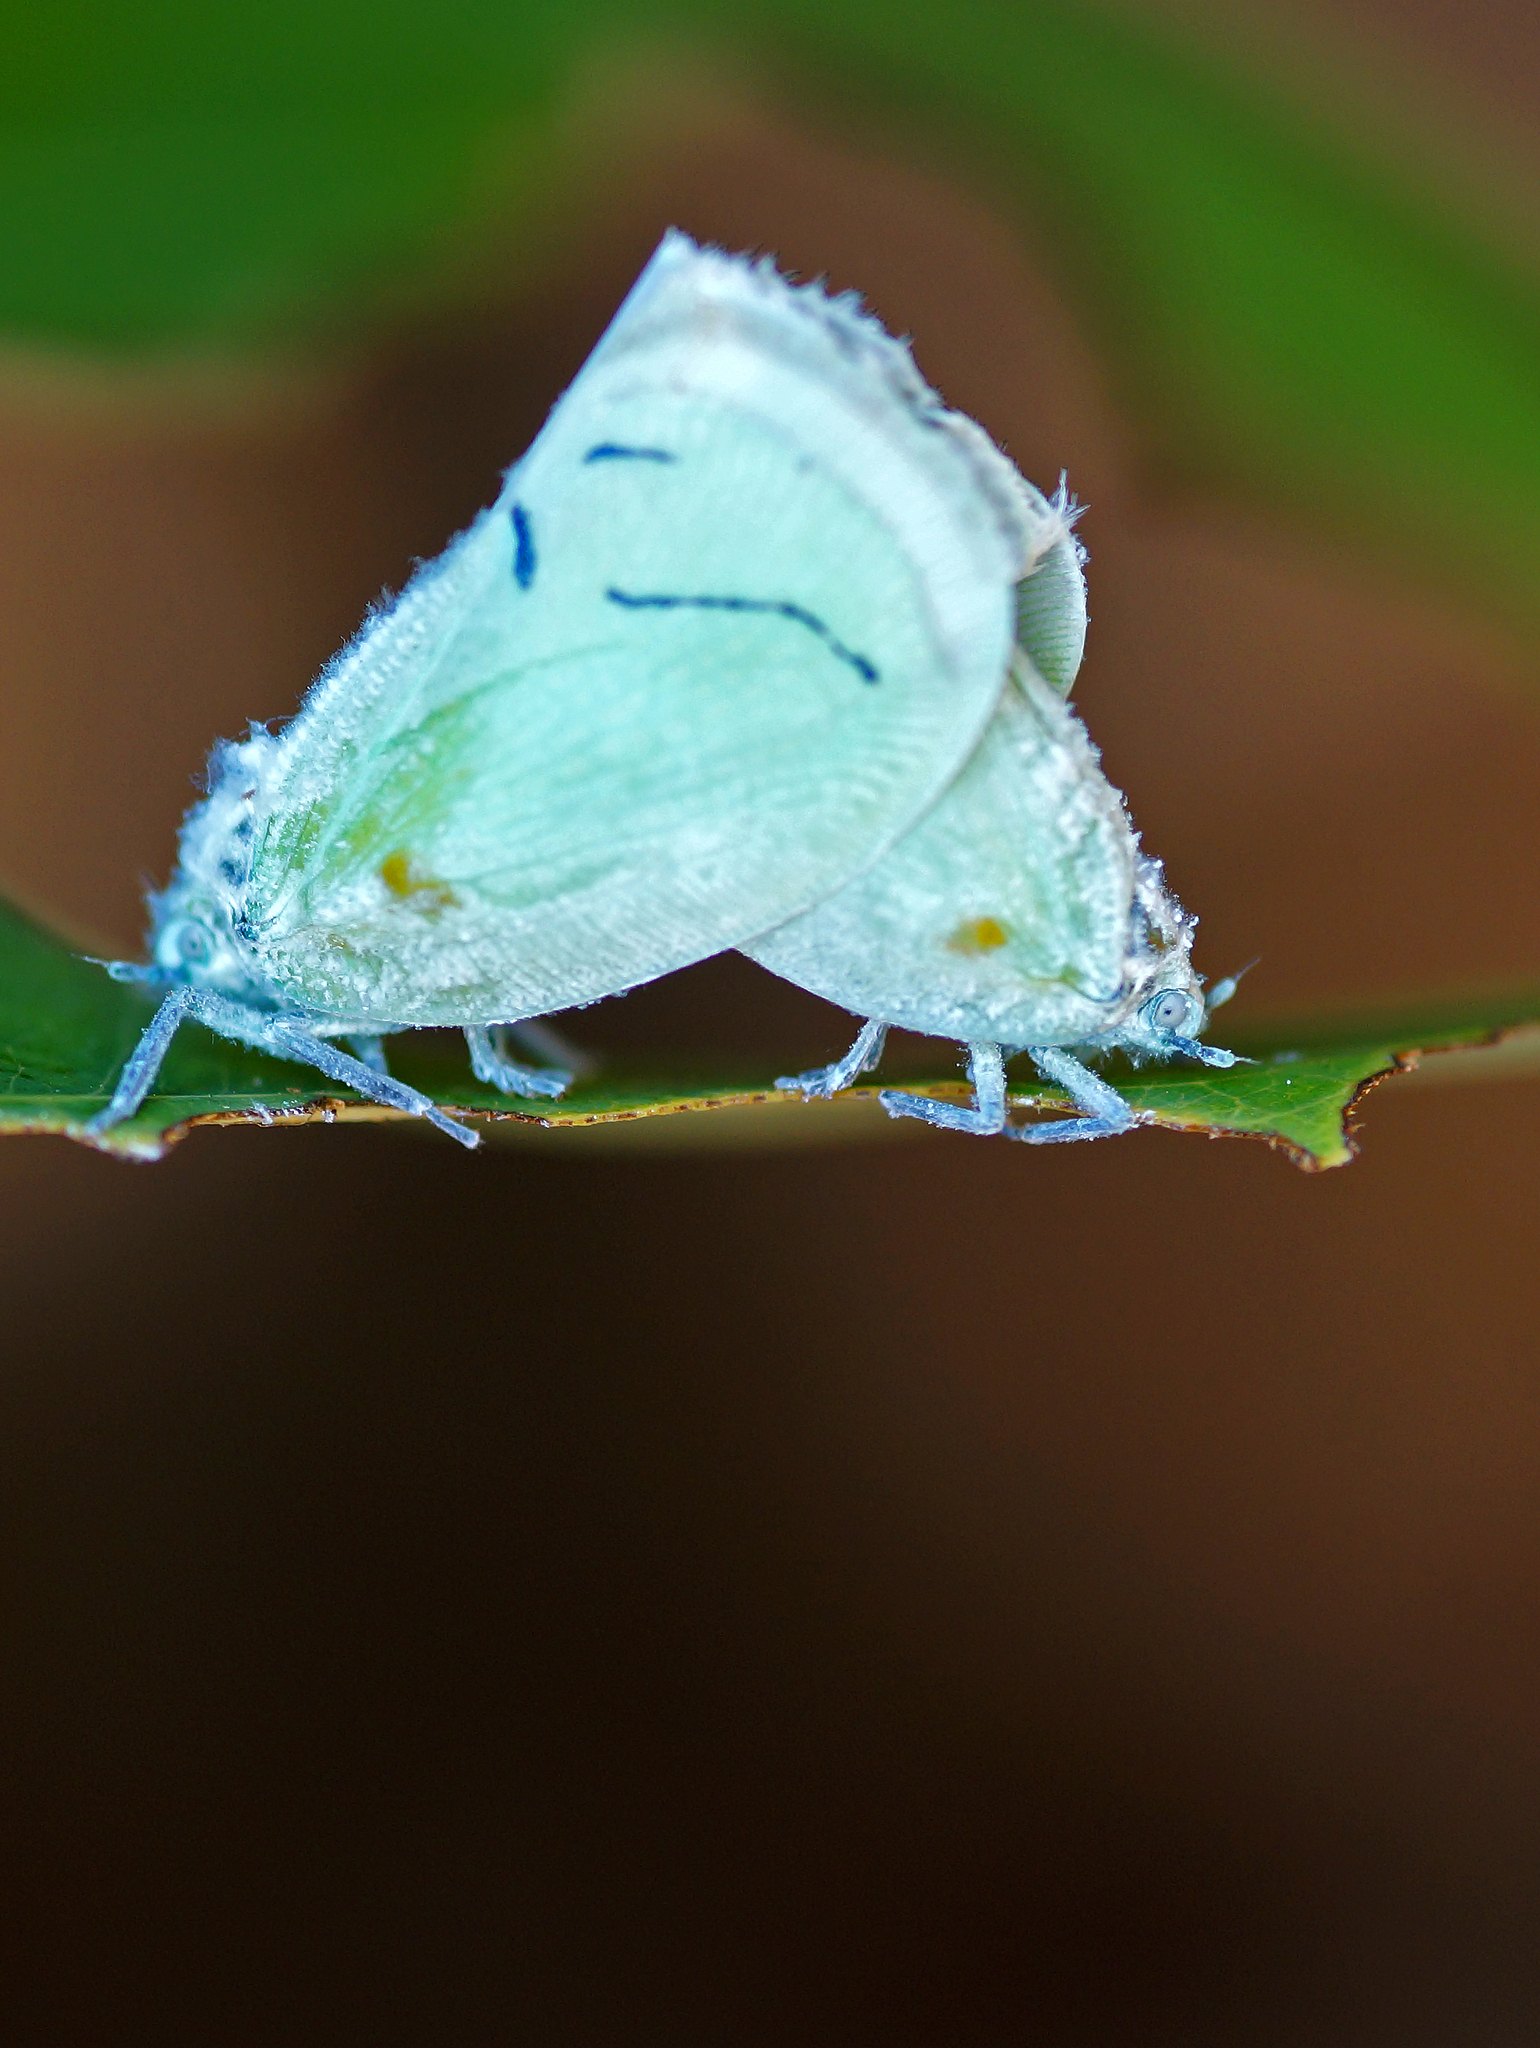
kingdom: Animalia
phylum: Arthropoda
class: Insecta
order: Hemiptera
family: Flatidae
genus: Cerynia
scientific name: Cerynia albata
